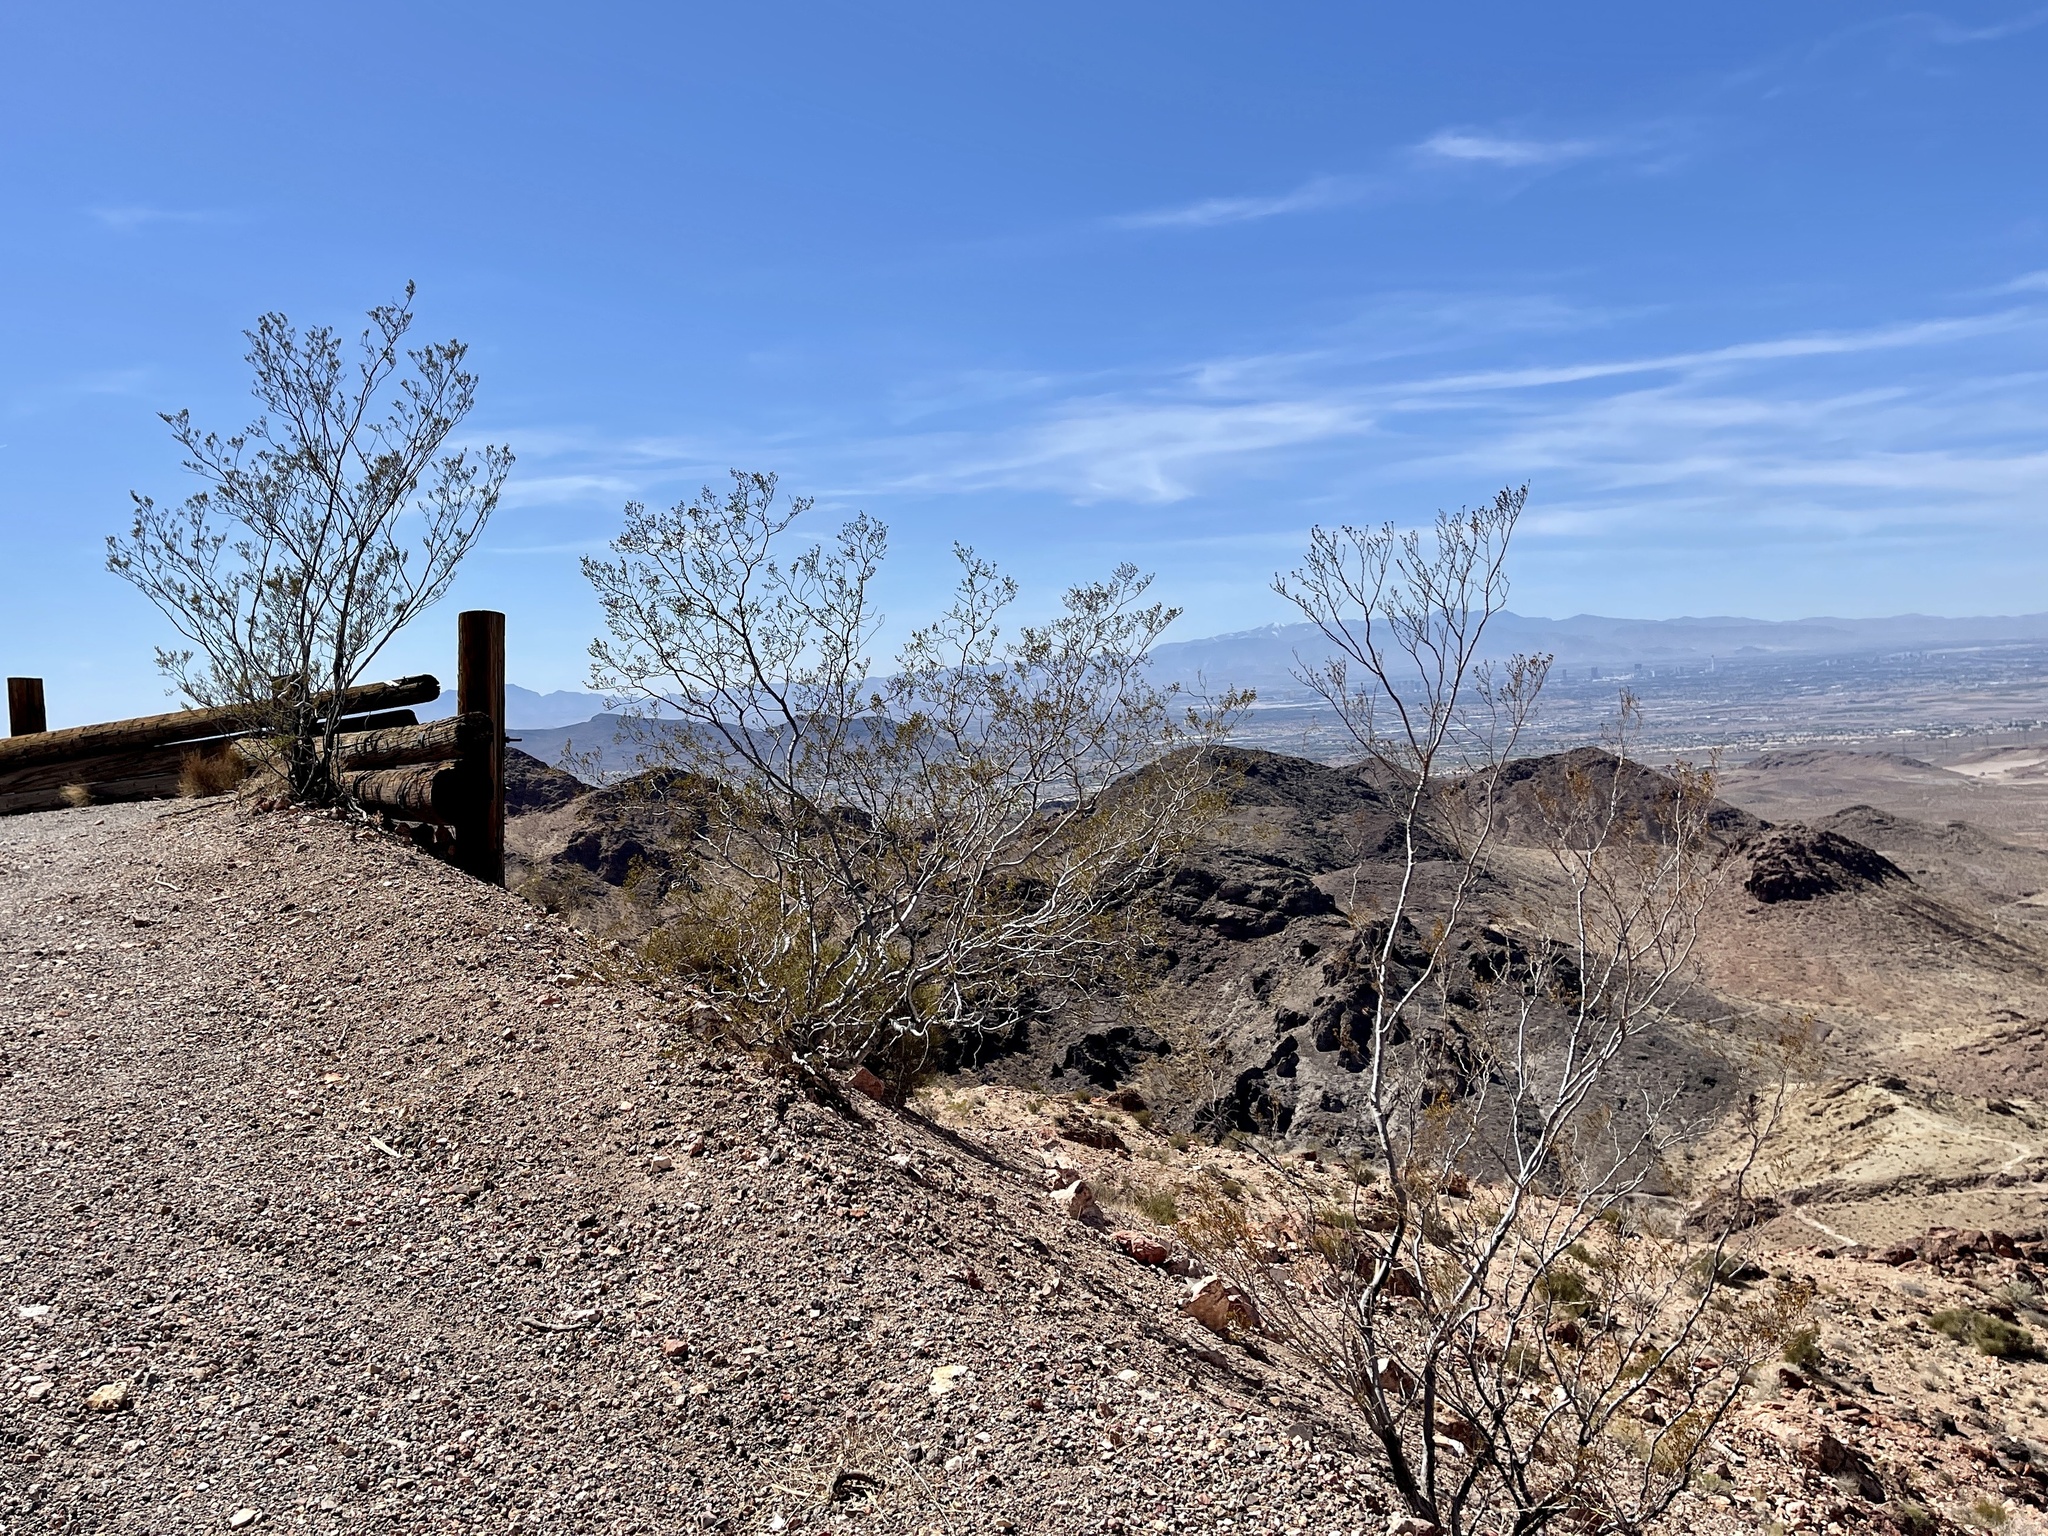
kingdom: Plantae
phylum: Tracheophyta
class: Magnoliopsida
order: Zygophyllales
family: Zygophyllaceae
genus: Larrea
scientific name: Larrea tridentata
